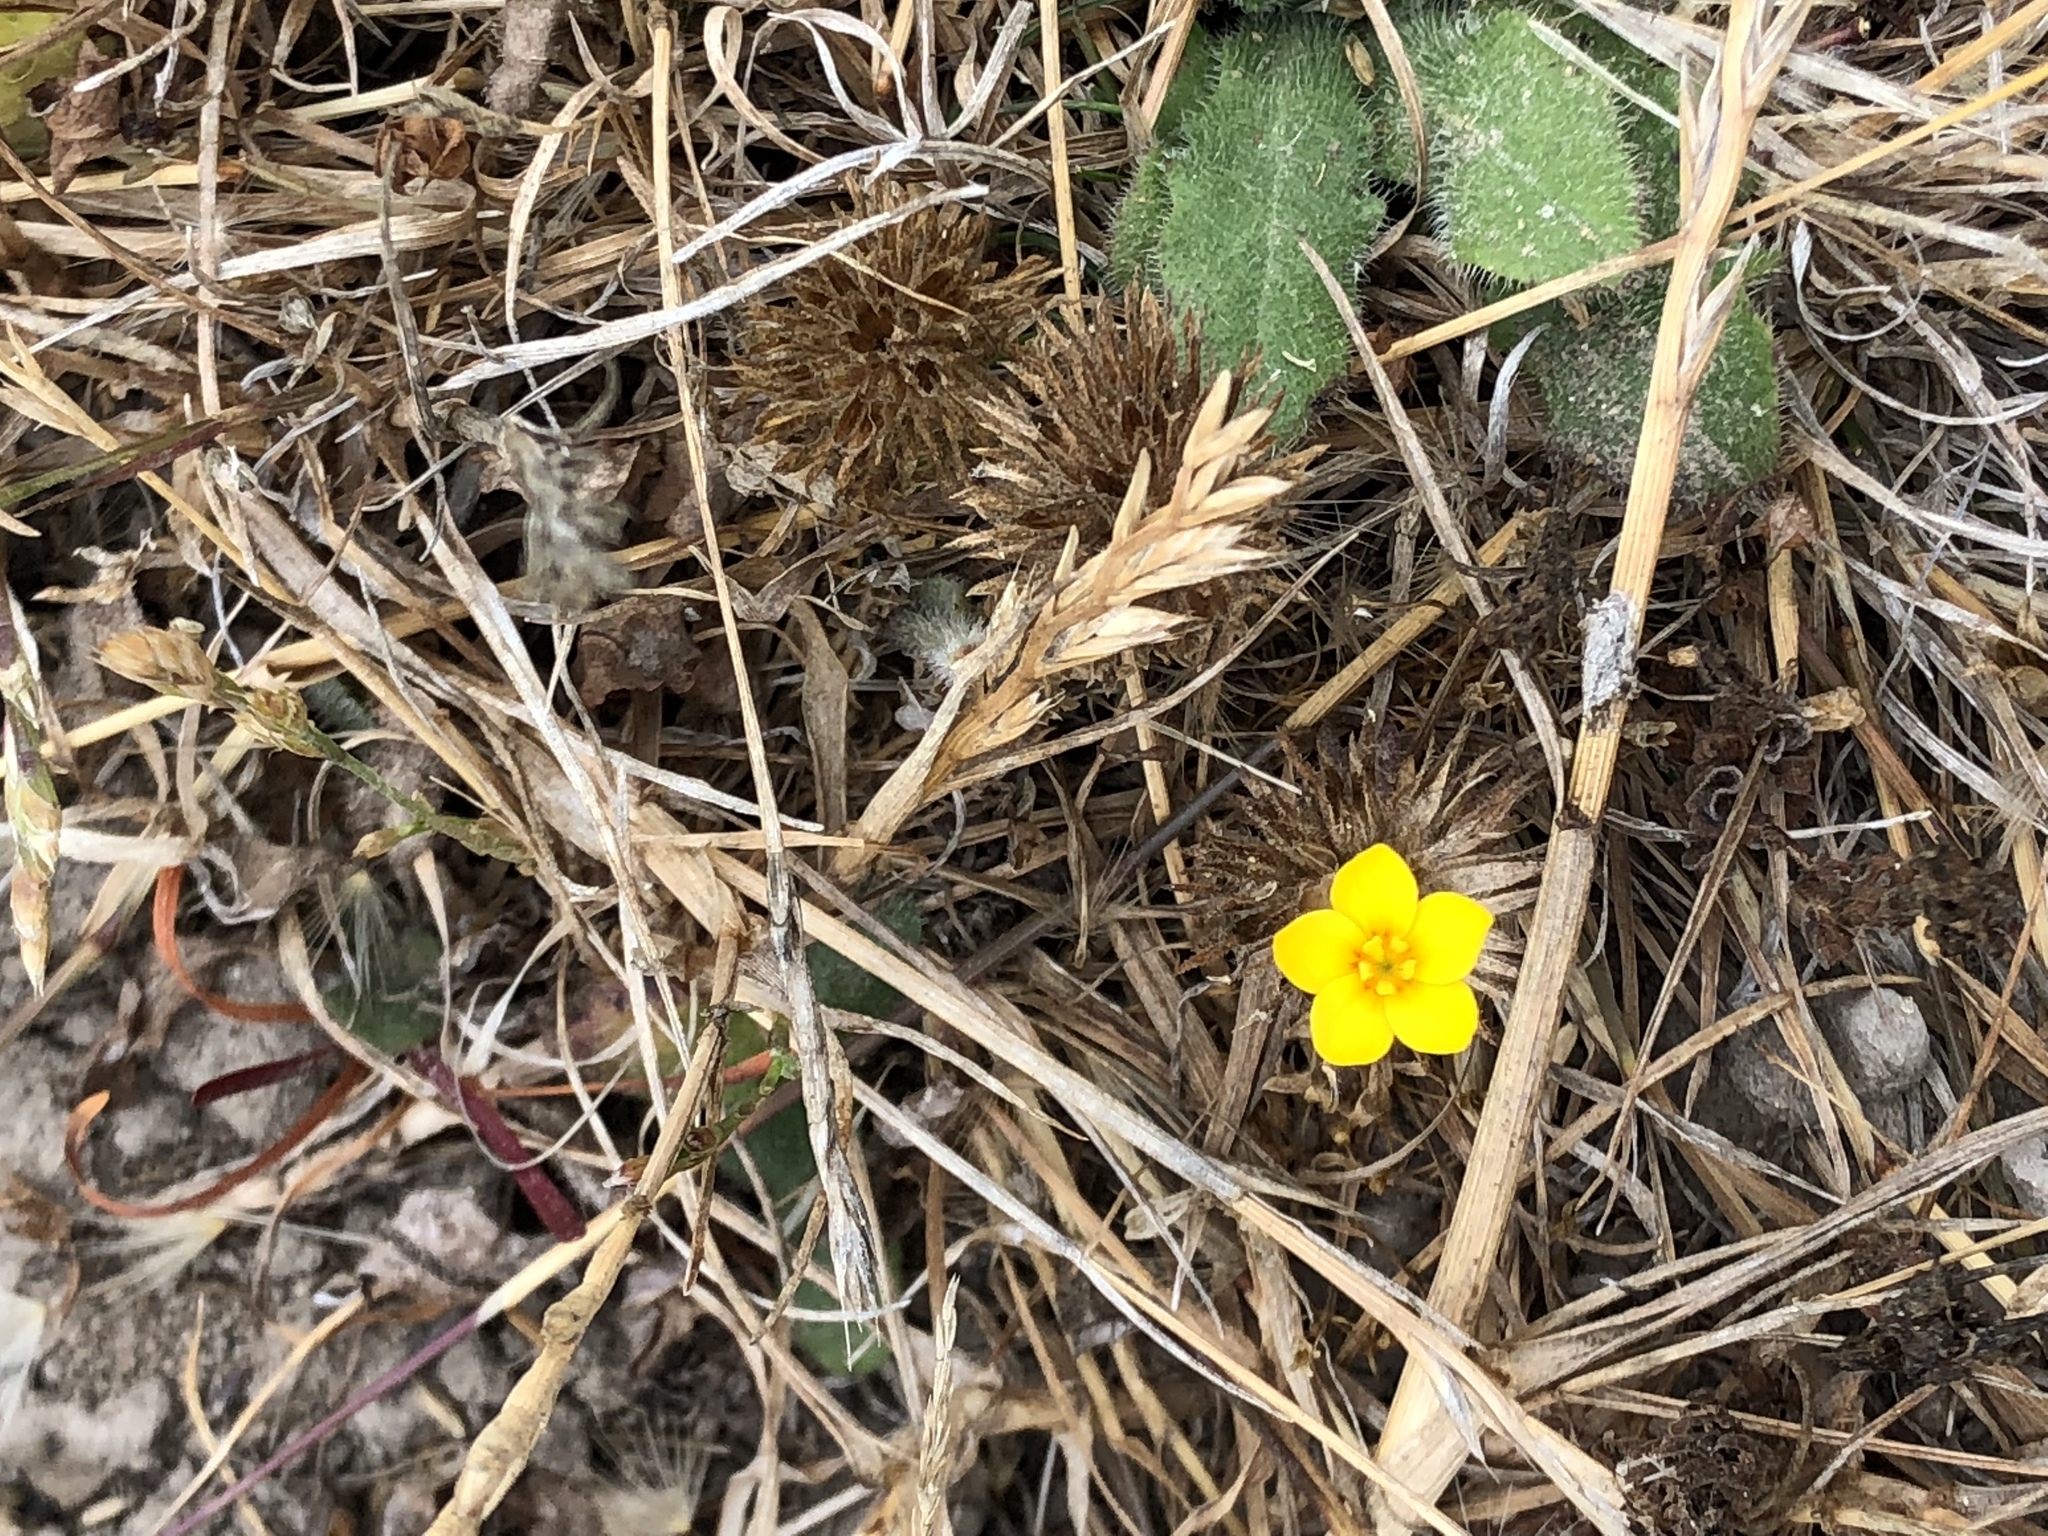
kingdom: Plantae
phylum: Tracheophyta
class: Magnoliopsida
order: Ericales
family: Polemoniaceae
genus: Leptosiphon
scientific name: Leptosiphon croceus
